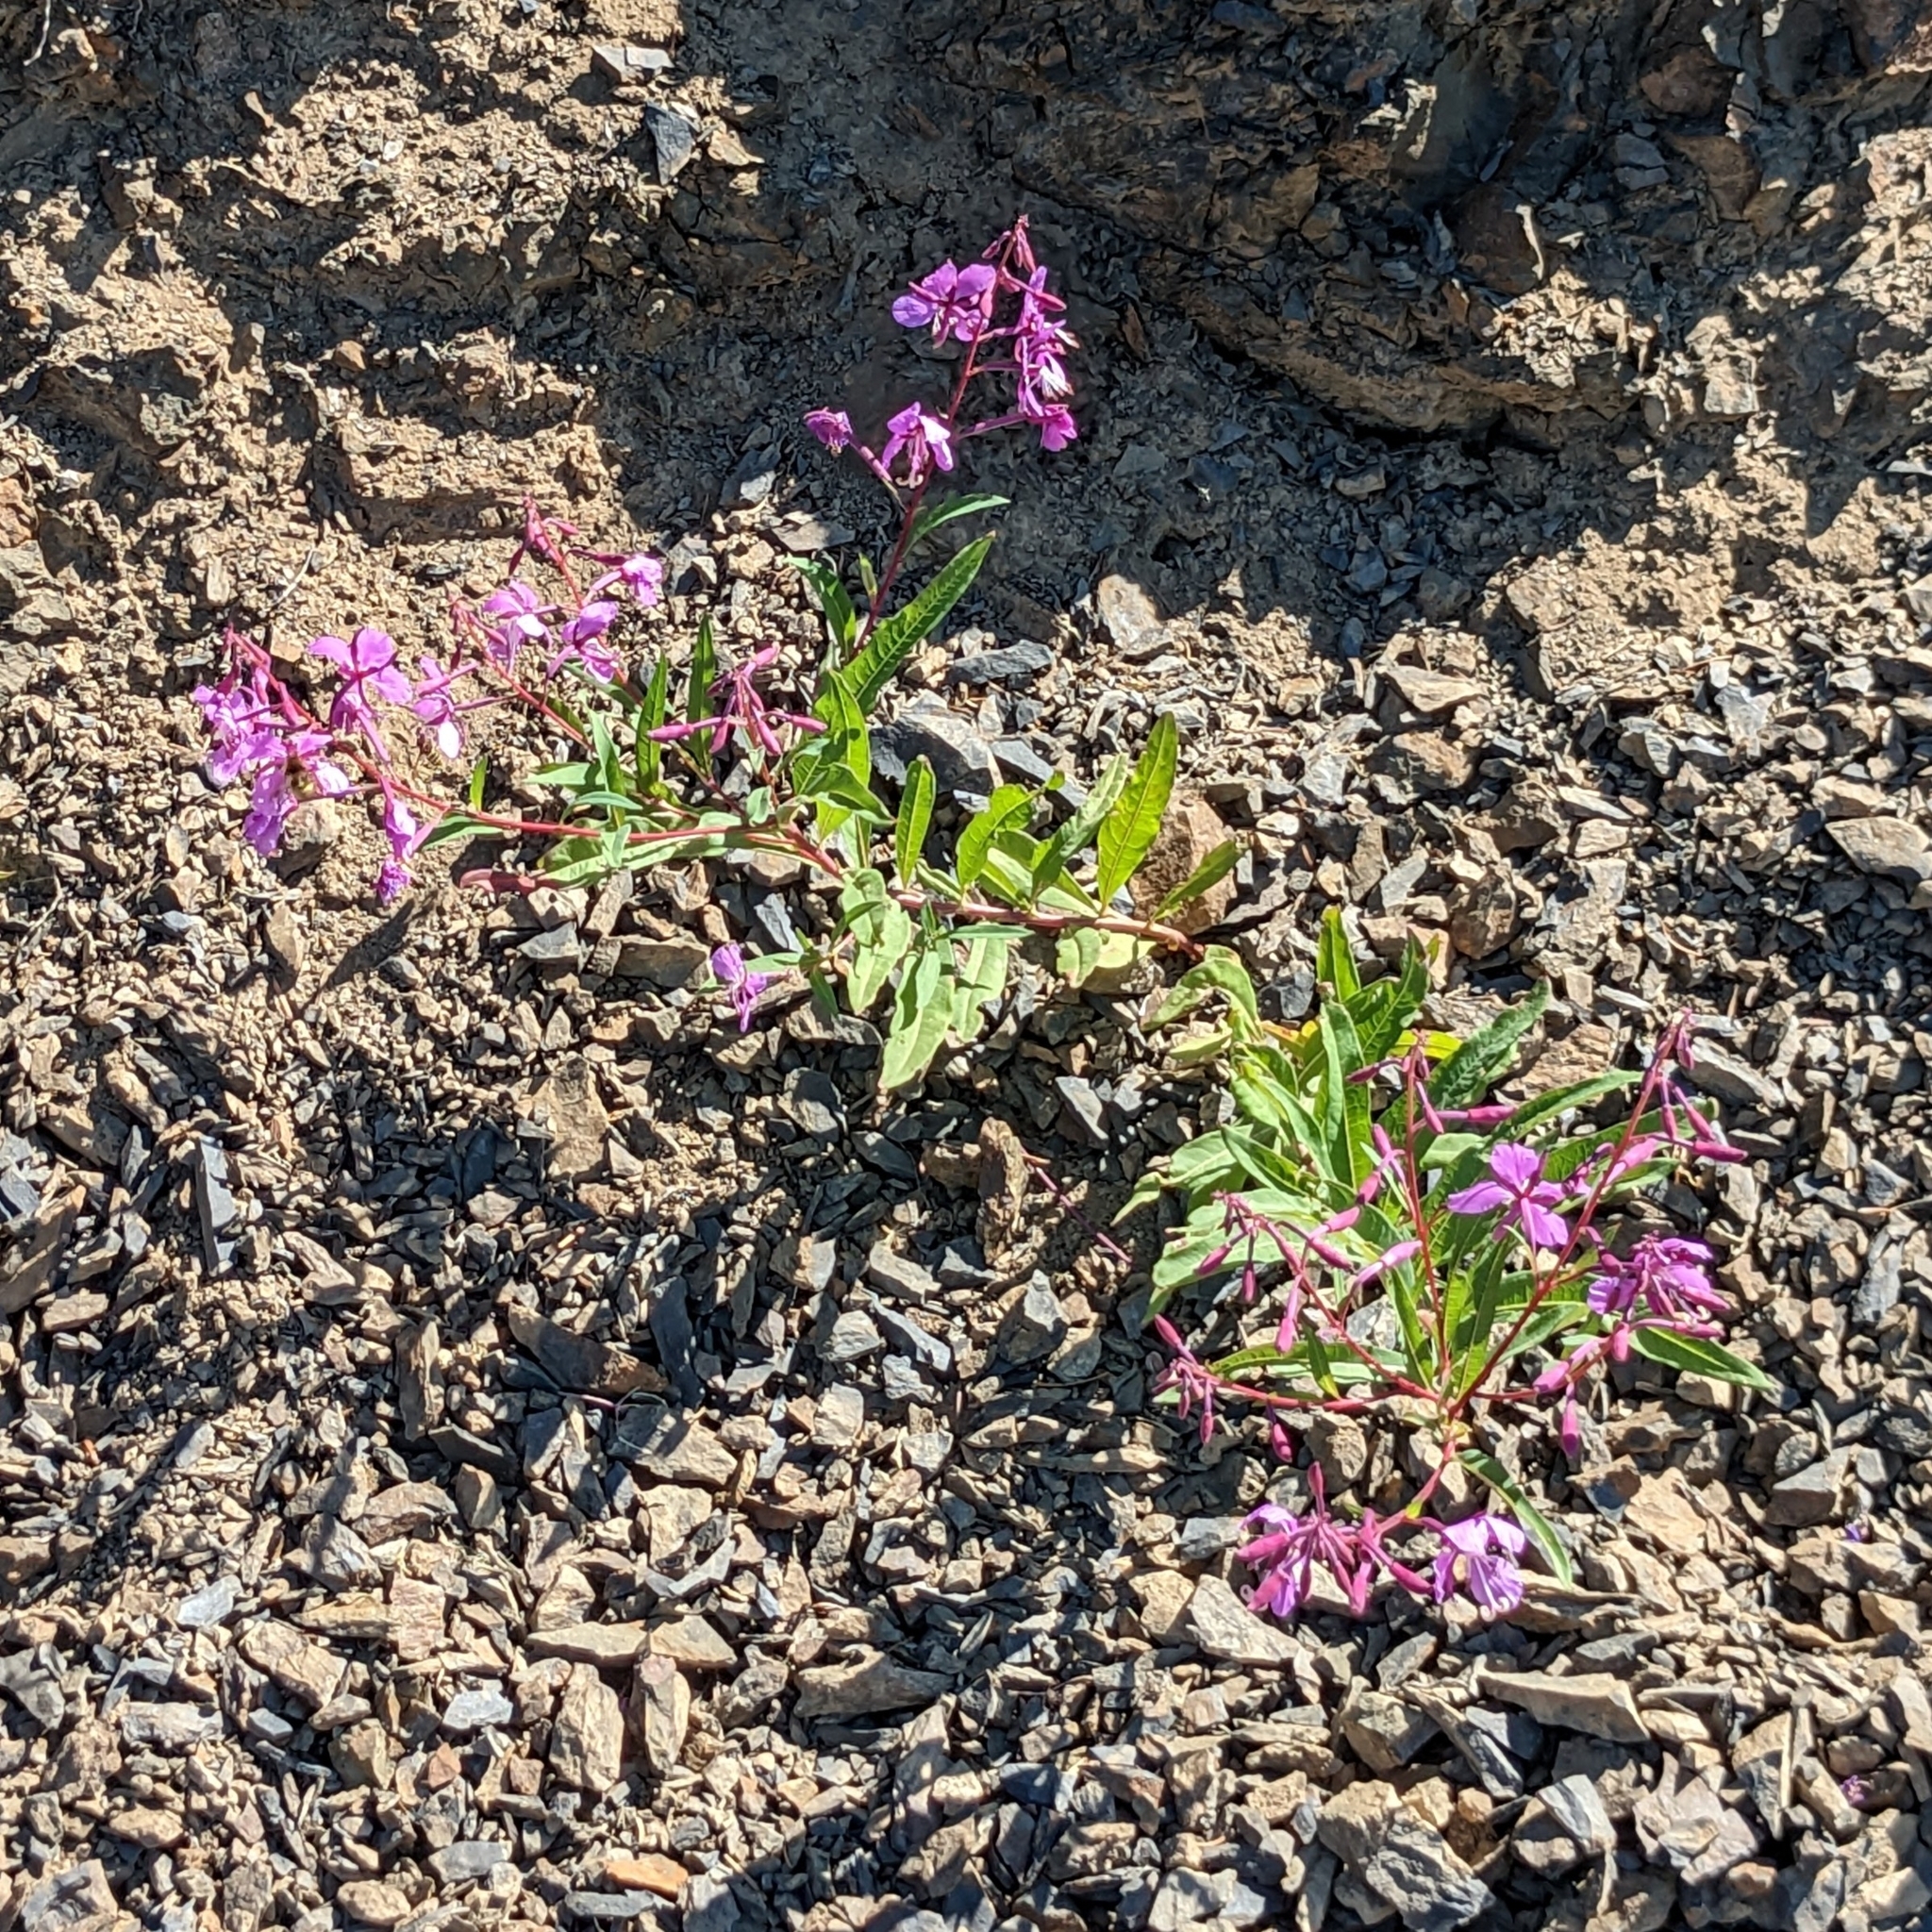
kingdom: Plantae
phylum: Tracheophyta
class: Magnoliopsida
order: Myrtales
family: Onagraceae
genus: Chamaenerion
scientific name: Chamaenerion angustifolium
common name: Fireweed
